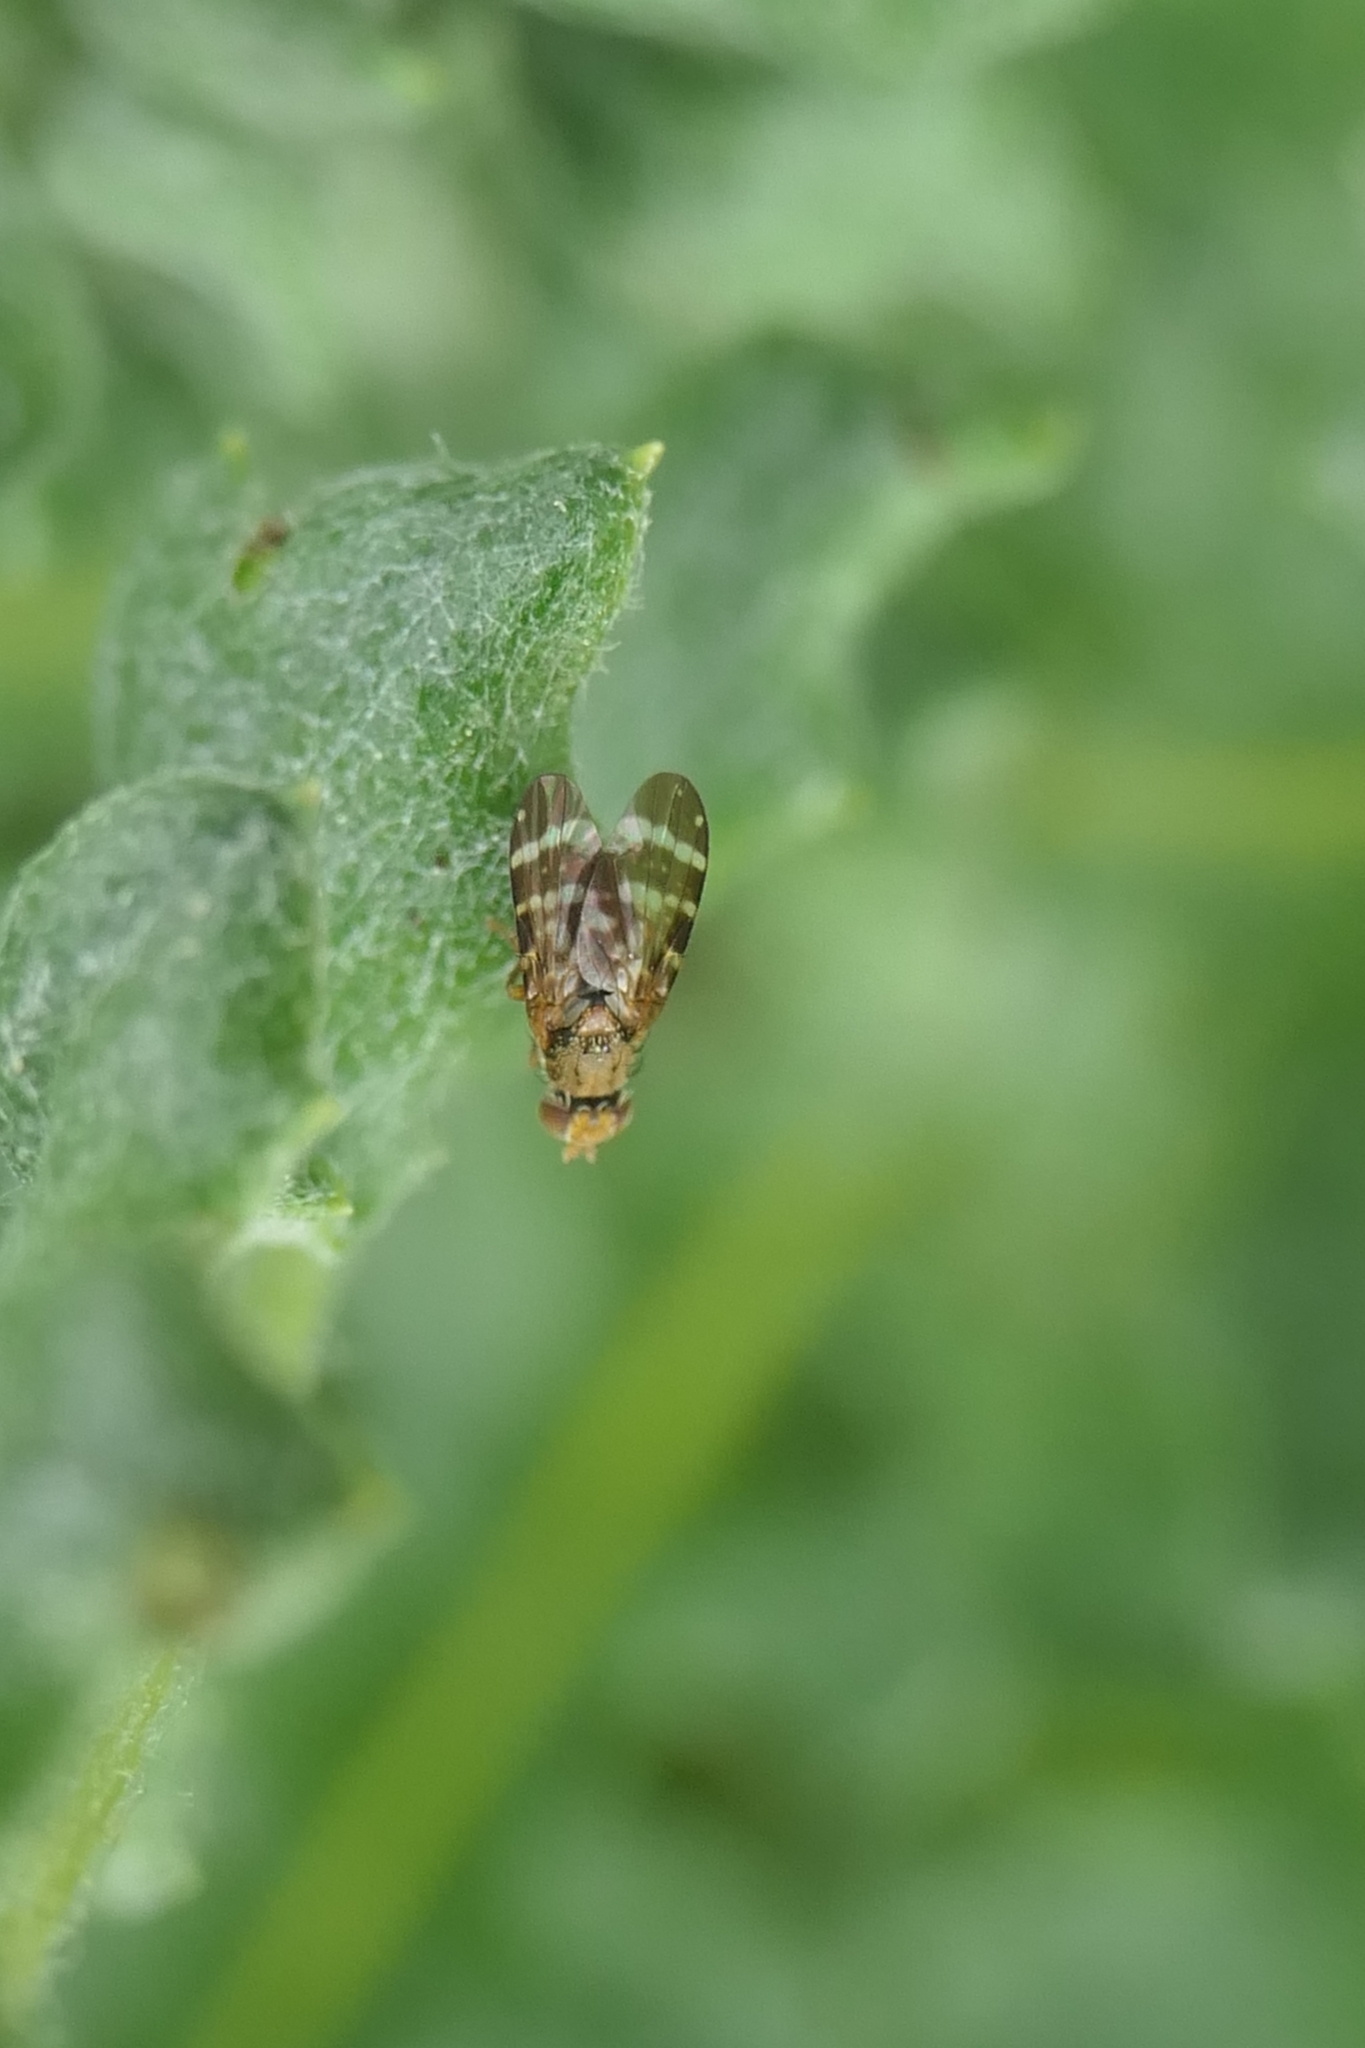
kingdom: Animalia
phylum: Arthropoda
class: Insecta
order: Diptera
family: Tephritidae
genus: Sphenella
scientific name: Sphenella
